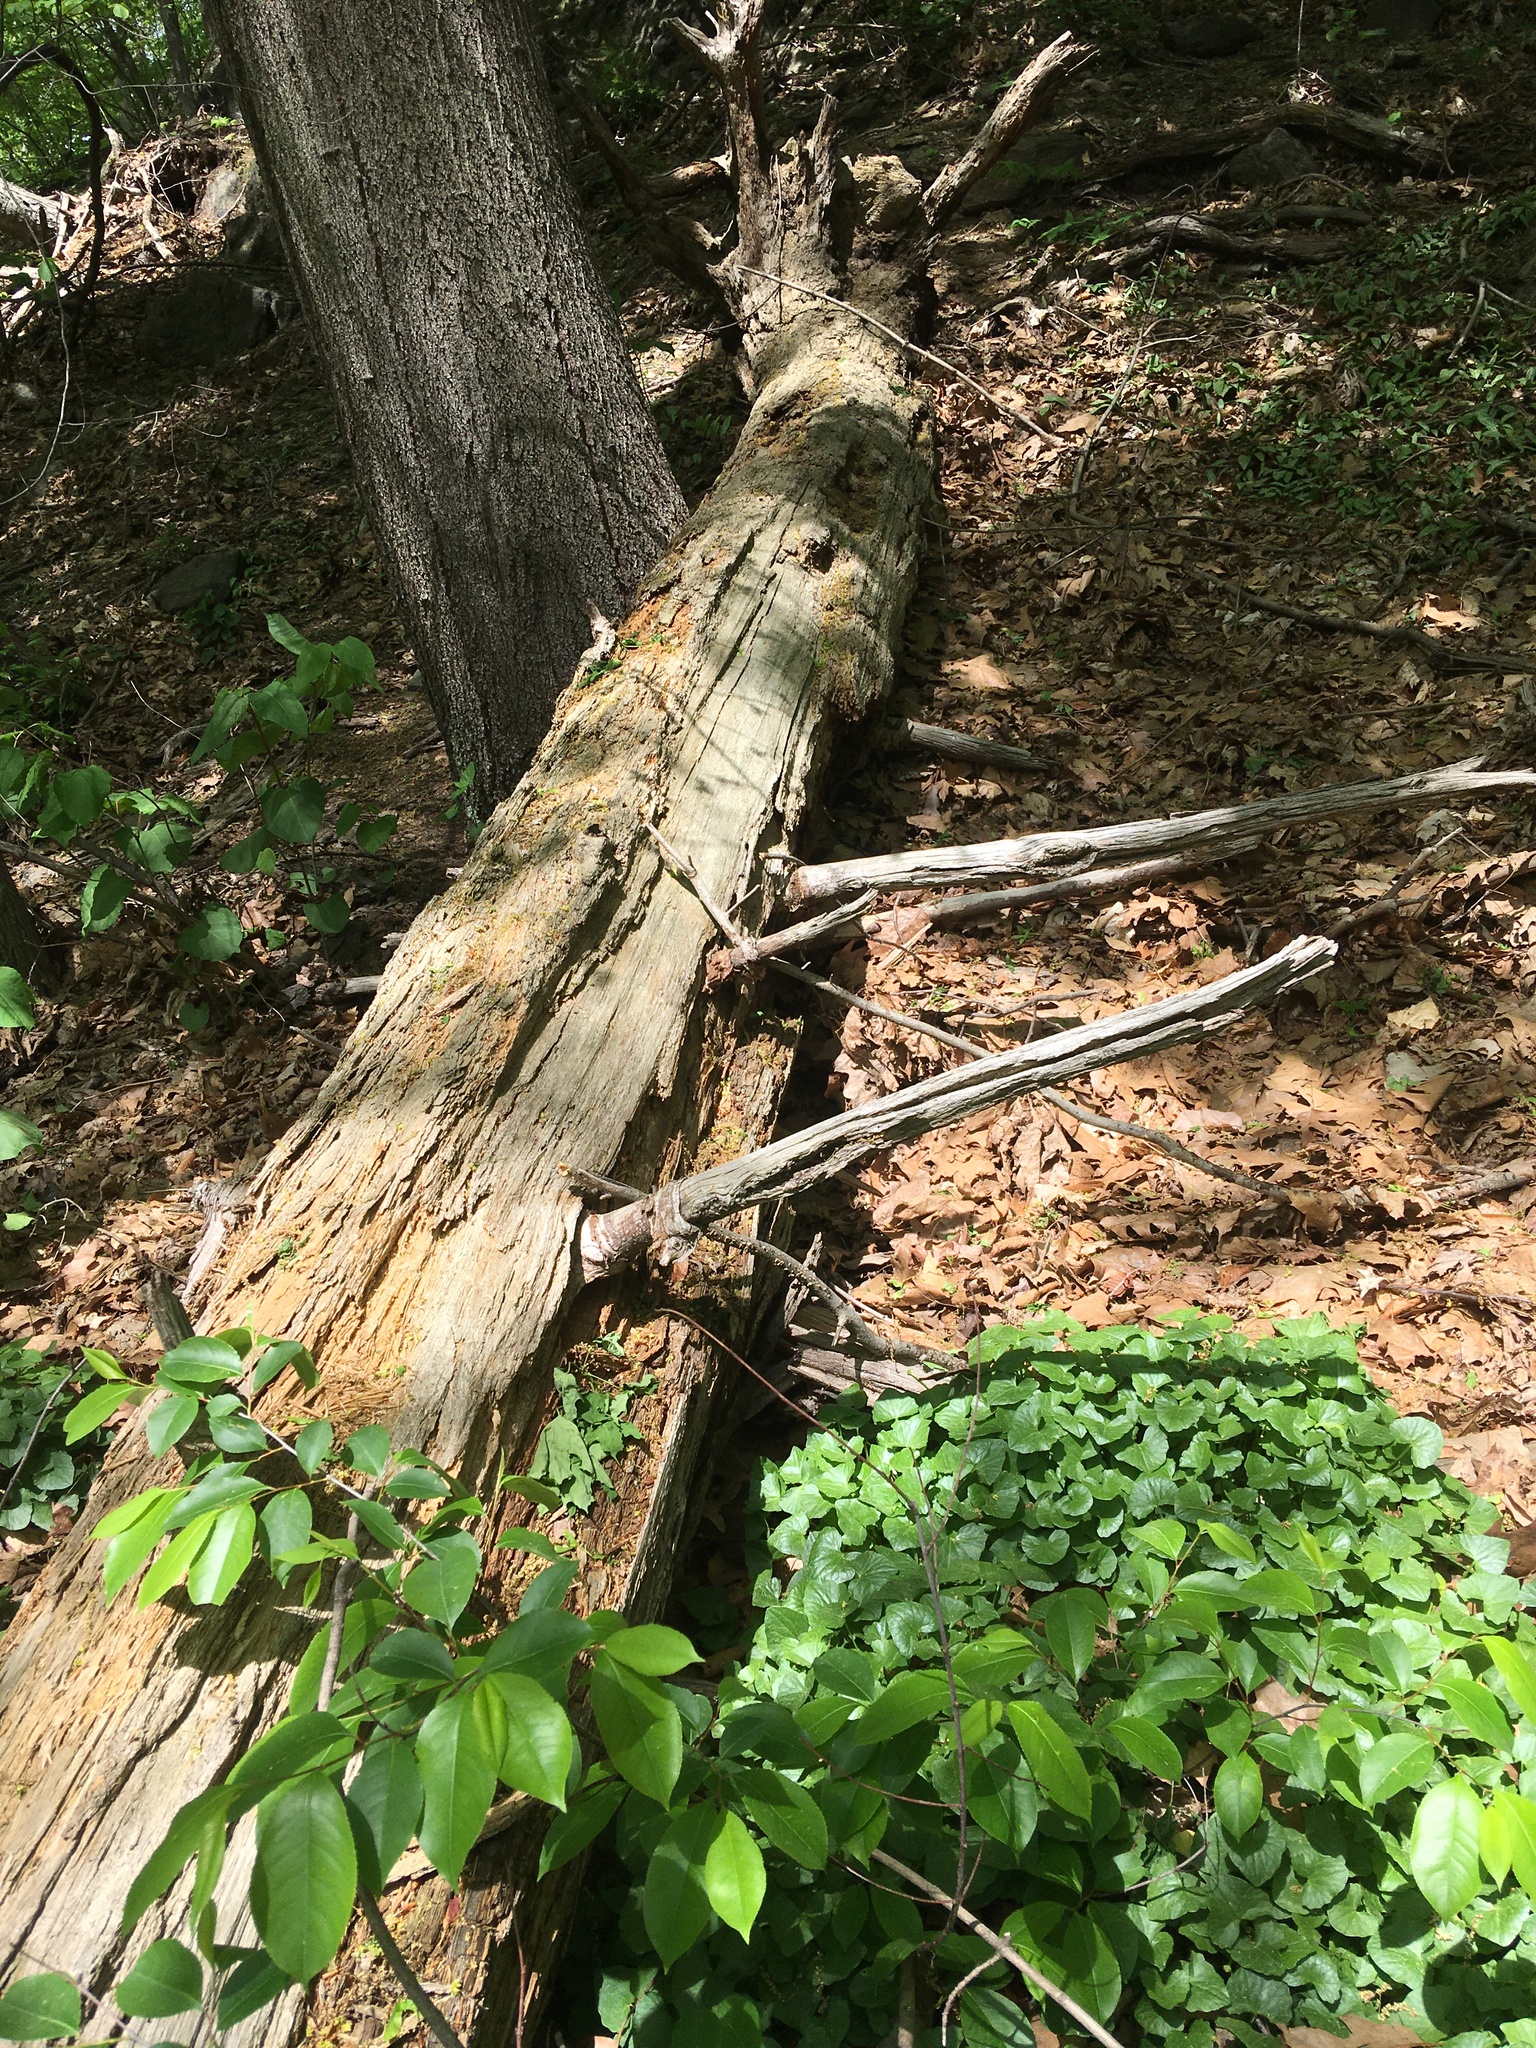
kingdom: Plantae
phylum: Tracheophyta
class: Pinopsida
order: Pinales
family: Pinaceae
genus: Tsuga
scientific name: Tsuga canadensis
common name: Eastern hemlock
